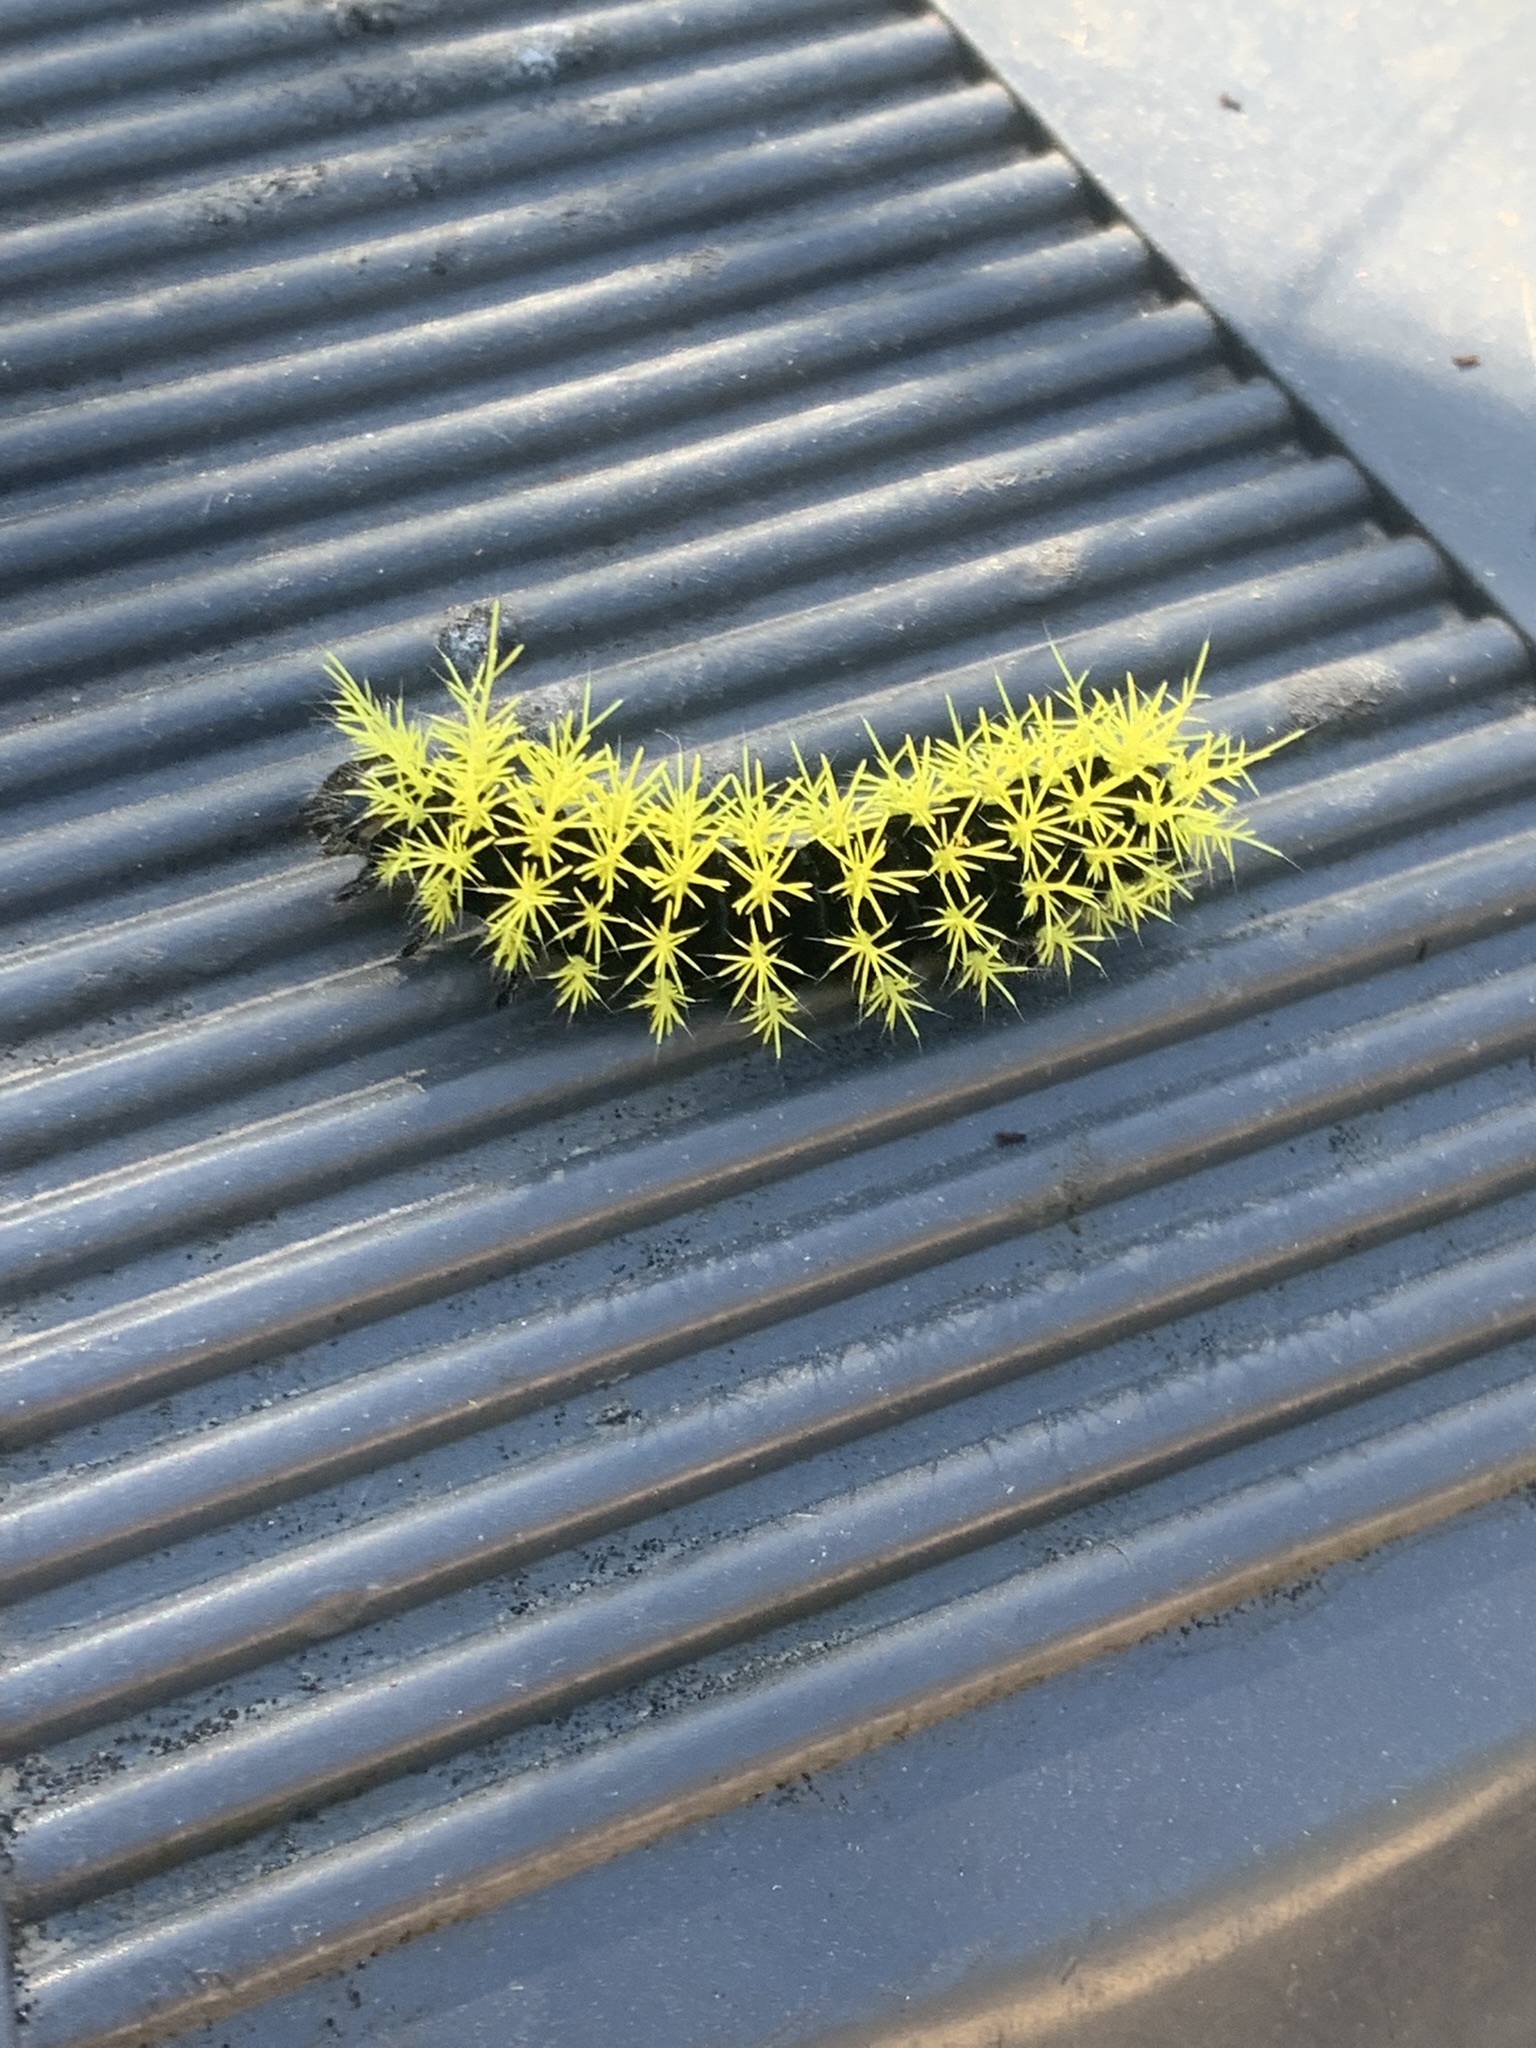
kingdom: Animalia
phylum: Arthropoda
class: Insecta
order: Lepidoptera
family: Saturniidae
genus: Leucanella
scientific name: Leucanella viridescens
